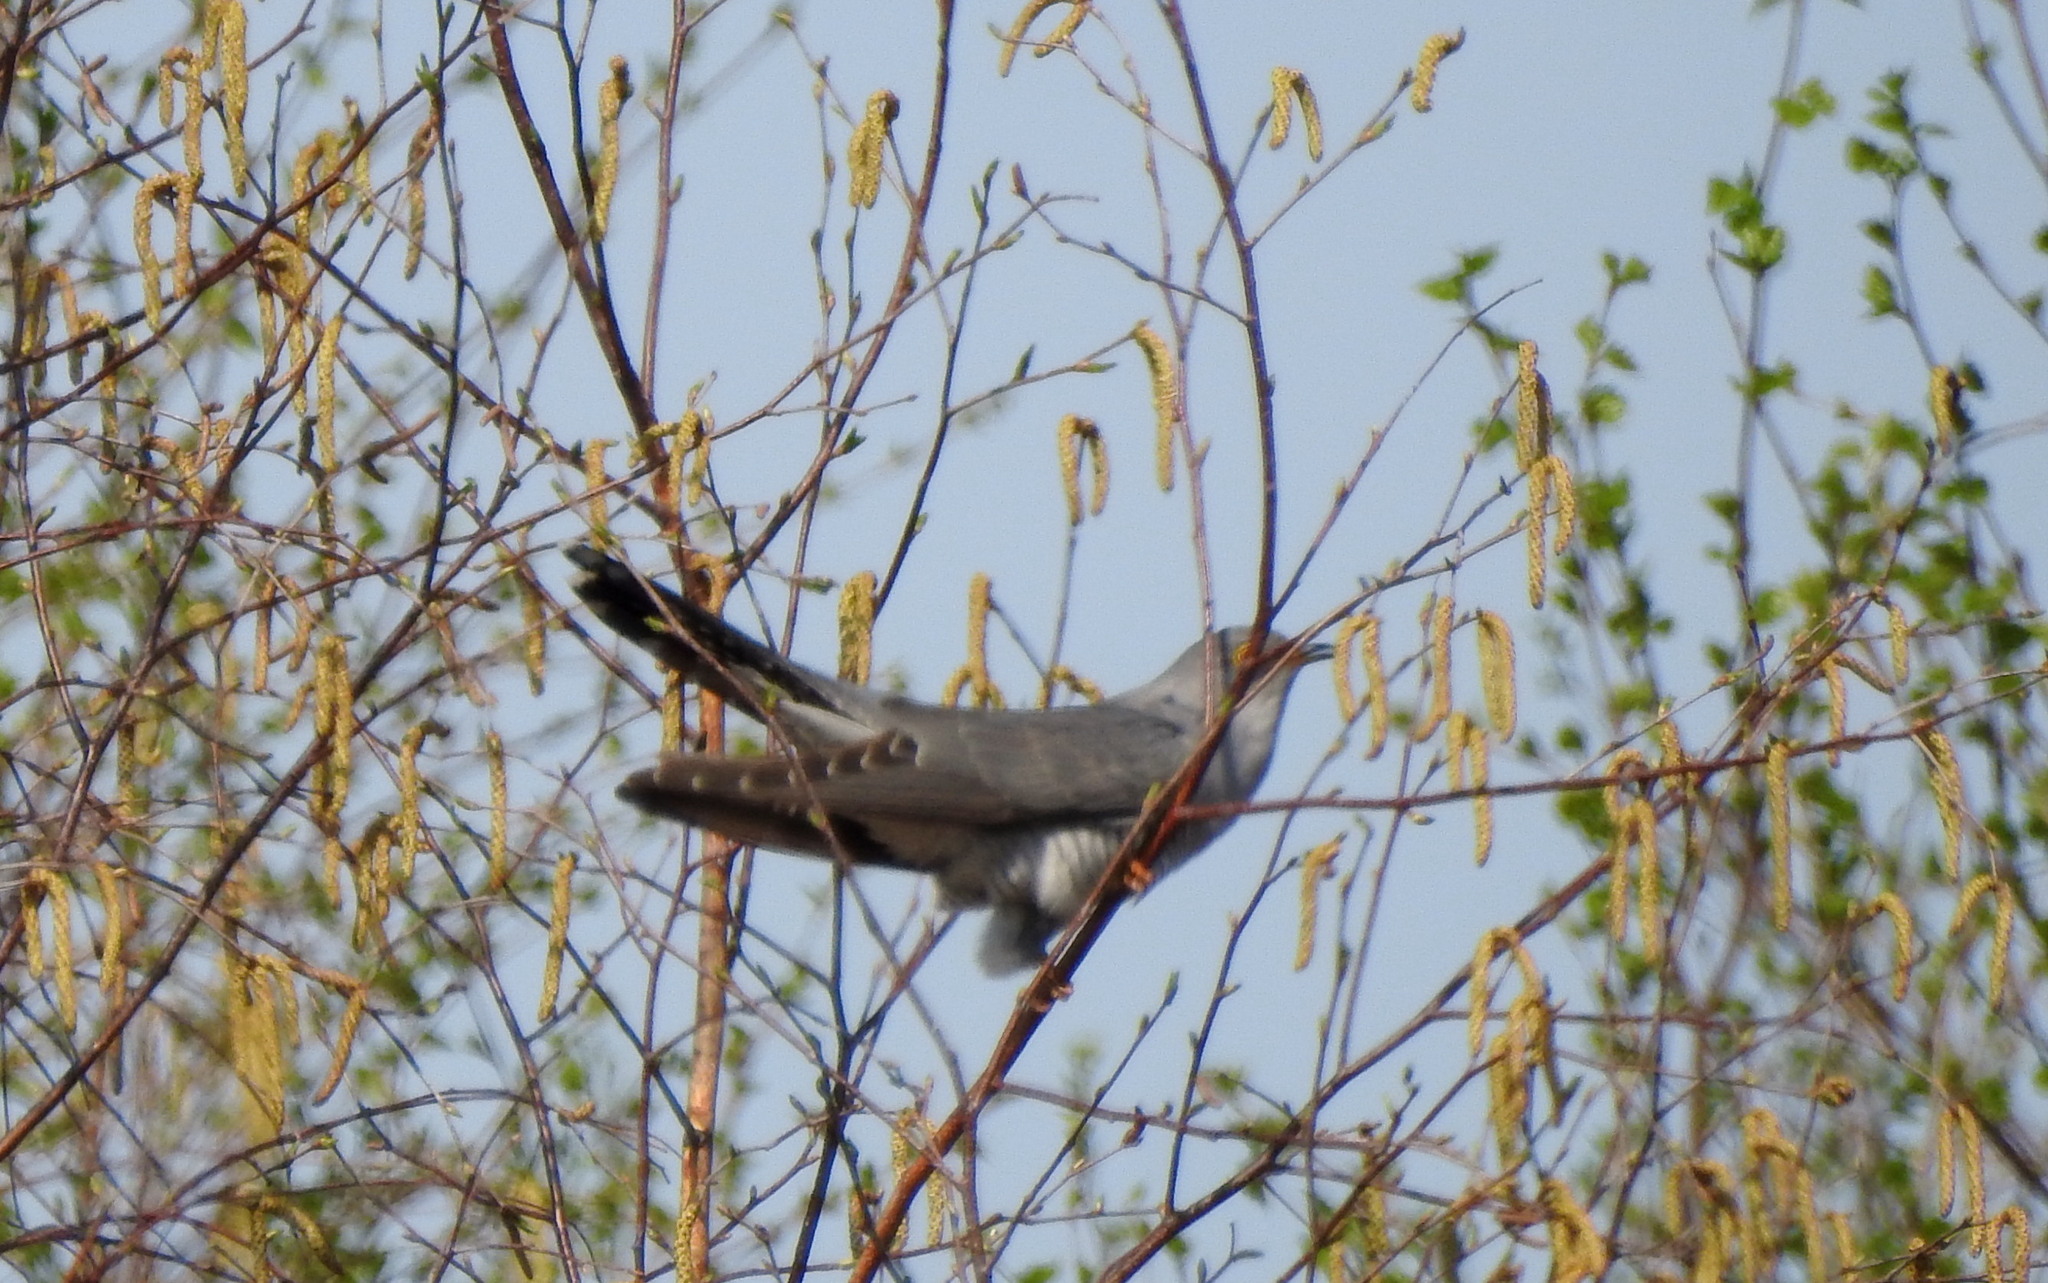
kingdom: Animalia
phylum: Chordata
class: Aves
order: Cuculiformes
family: Cuculidae
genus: Cuculus
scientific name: Cuculus canorus
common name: Common cuckoo
